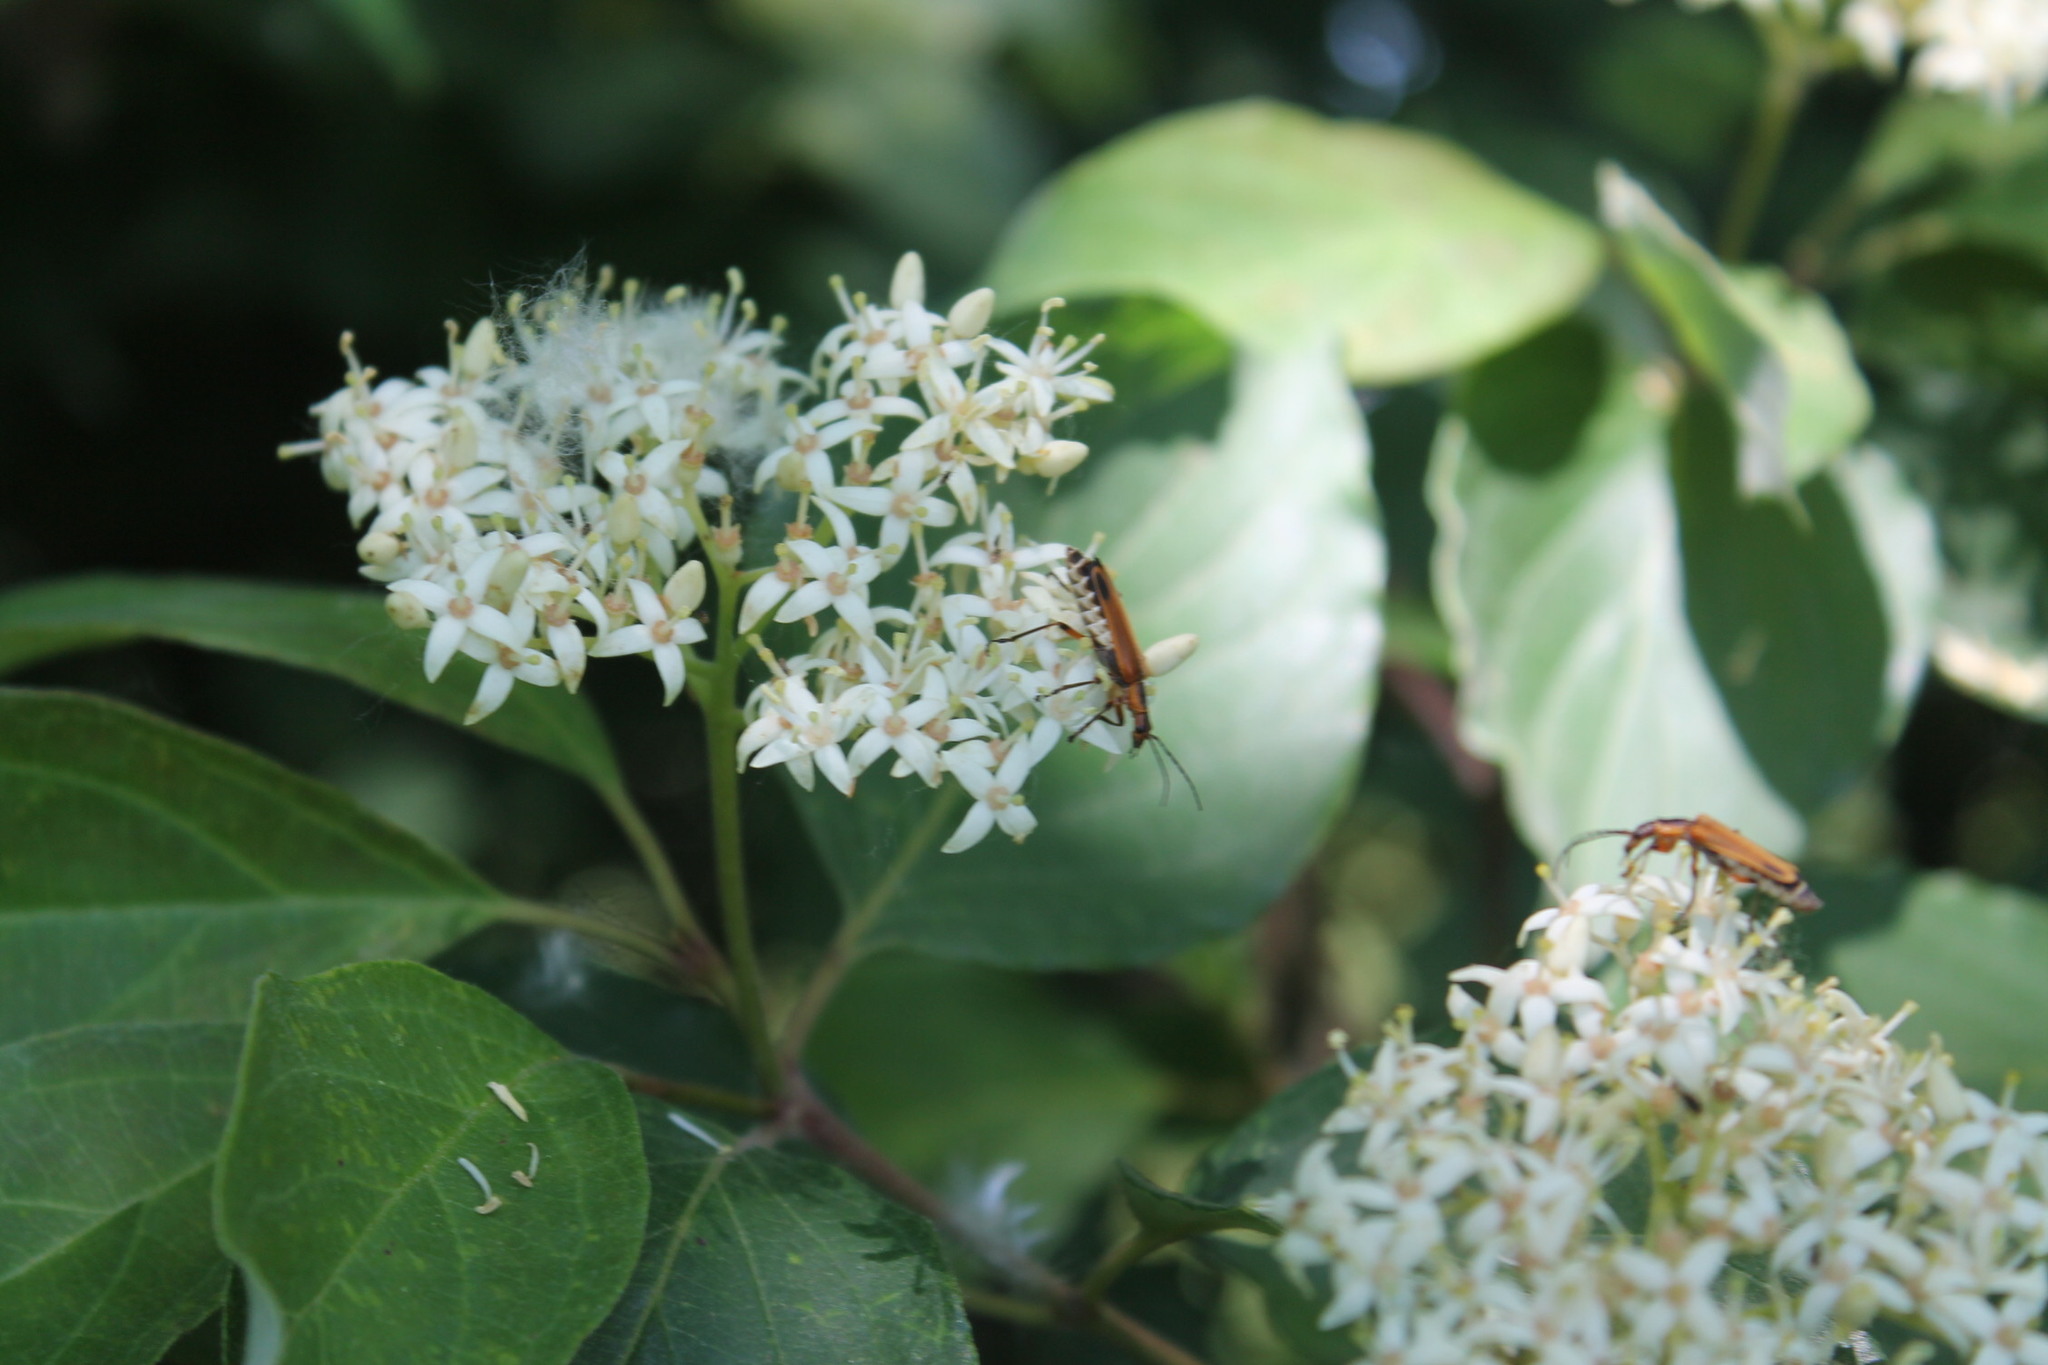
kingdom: Animalia
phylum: Arthropoda
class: Insecta
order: Coleoptera
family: Cantharidae
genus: Chauliognathus
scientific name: Chauliognathus marginatus
